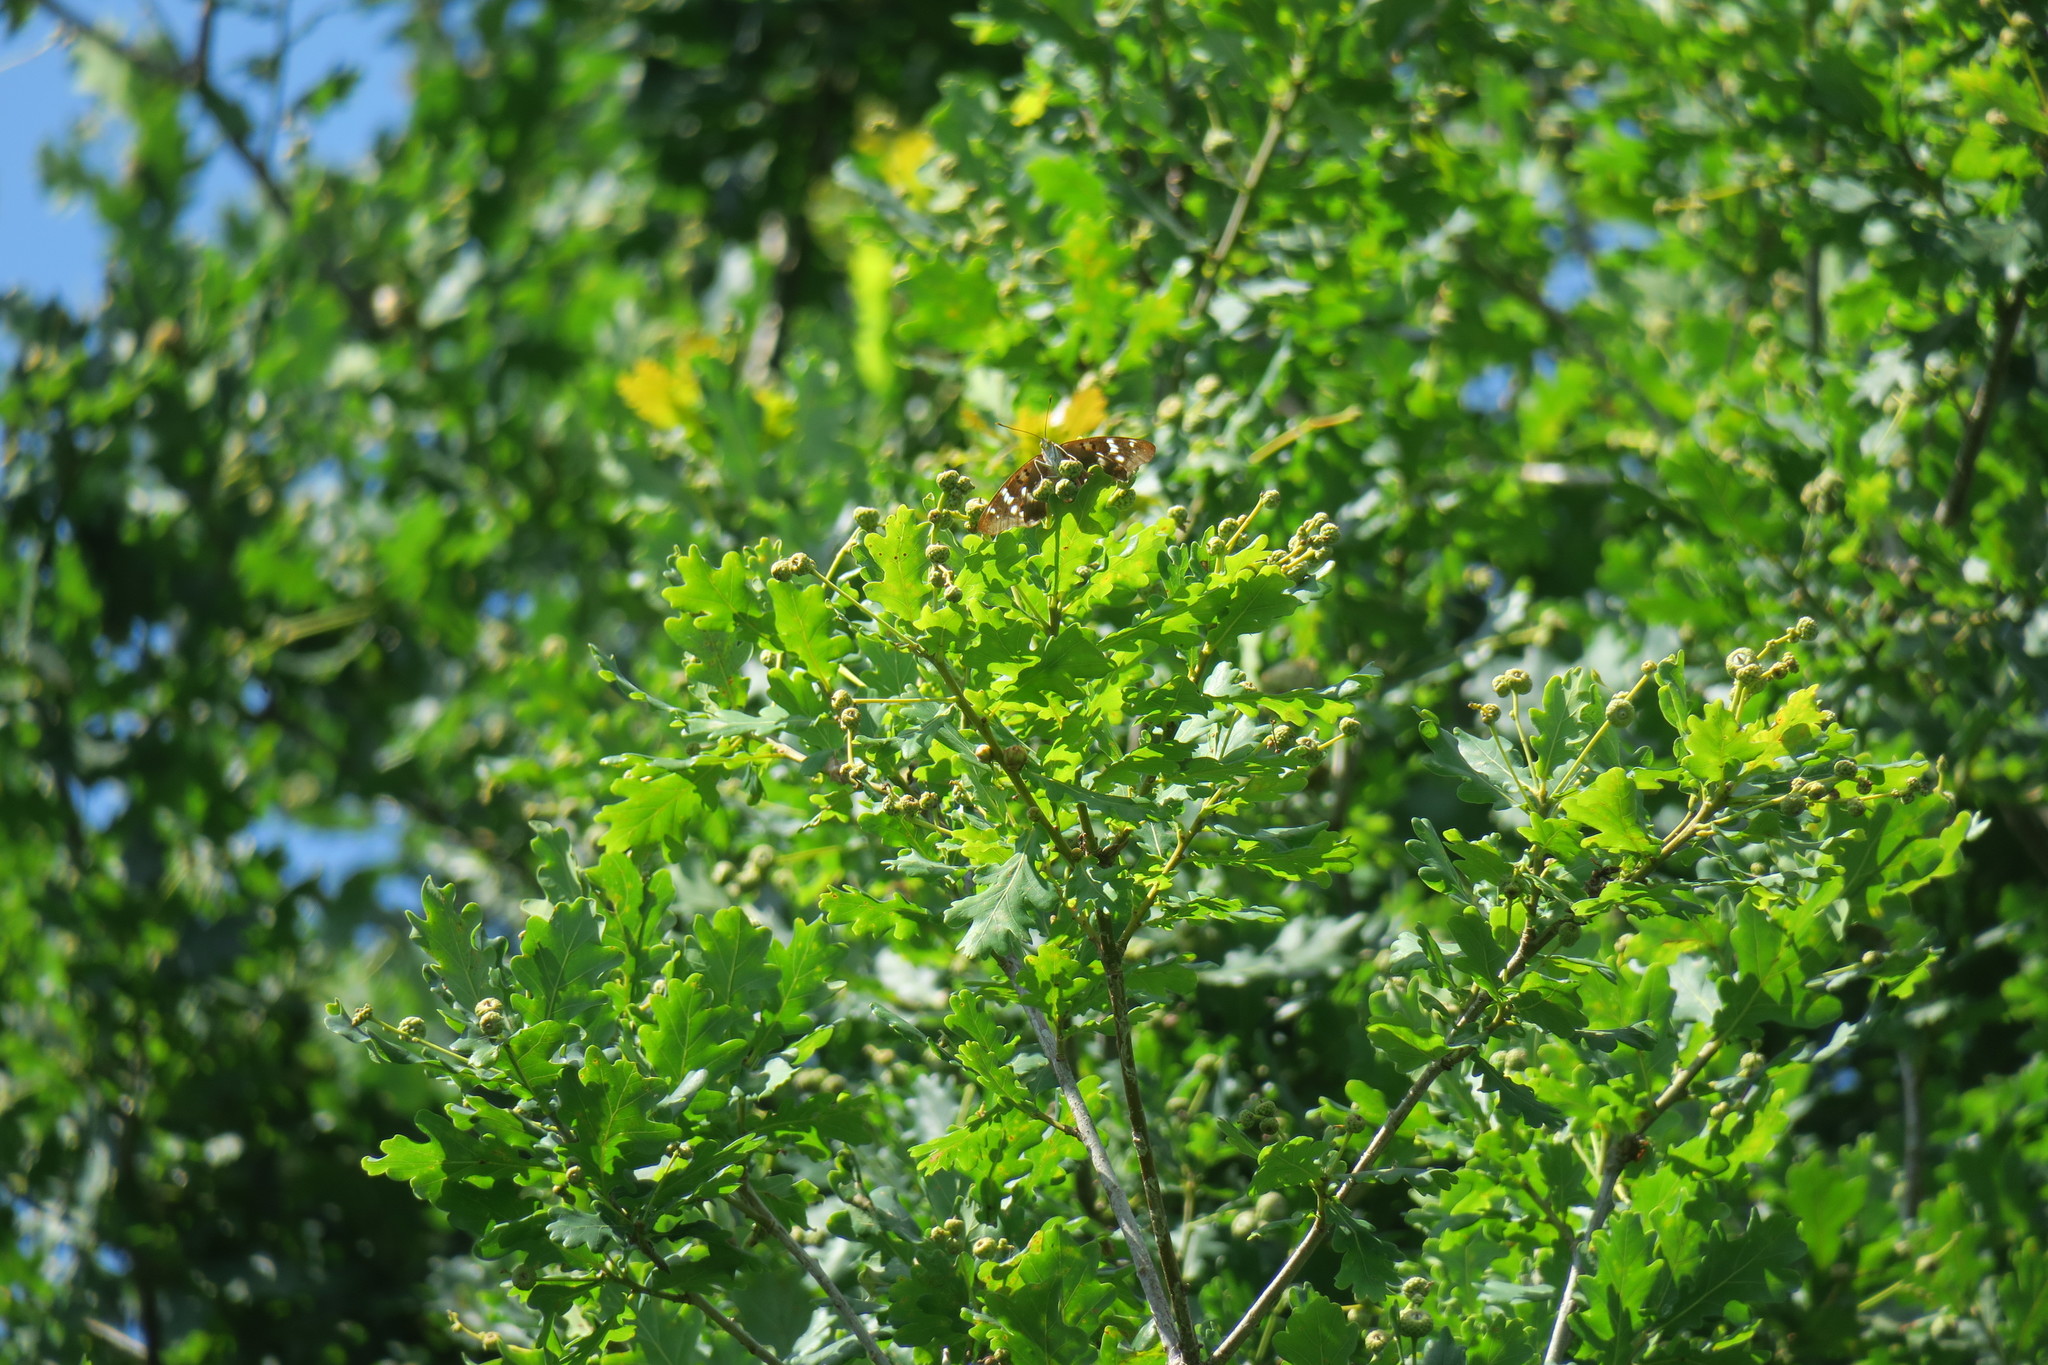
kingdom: Animalia
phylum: Arthropoda
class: Insecta
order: Lepidoptera
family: Nymphalidae
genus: Apatura
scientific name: Apatura ilia
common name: Lesser purple emperor
